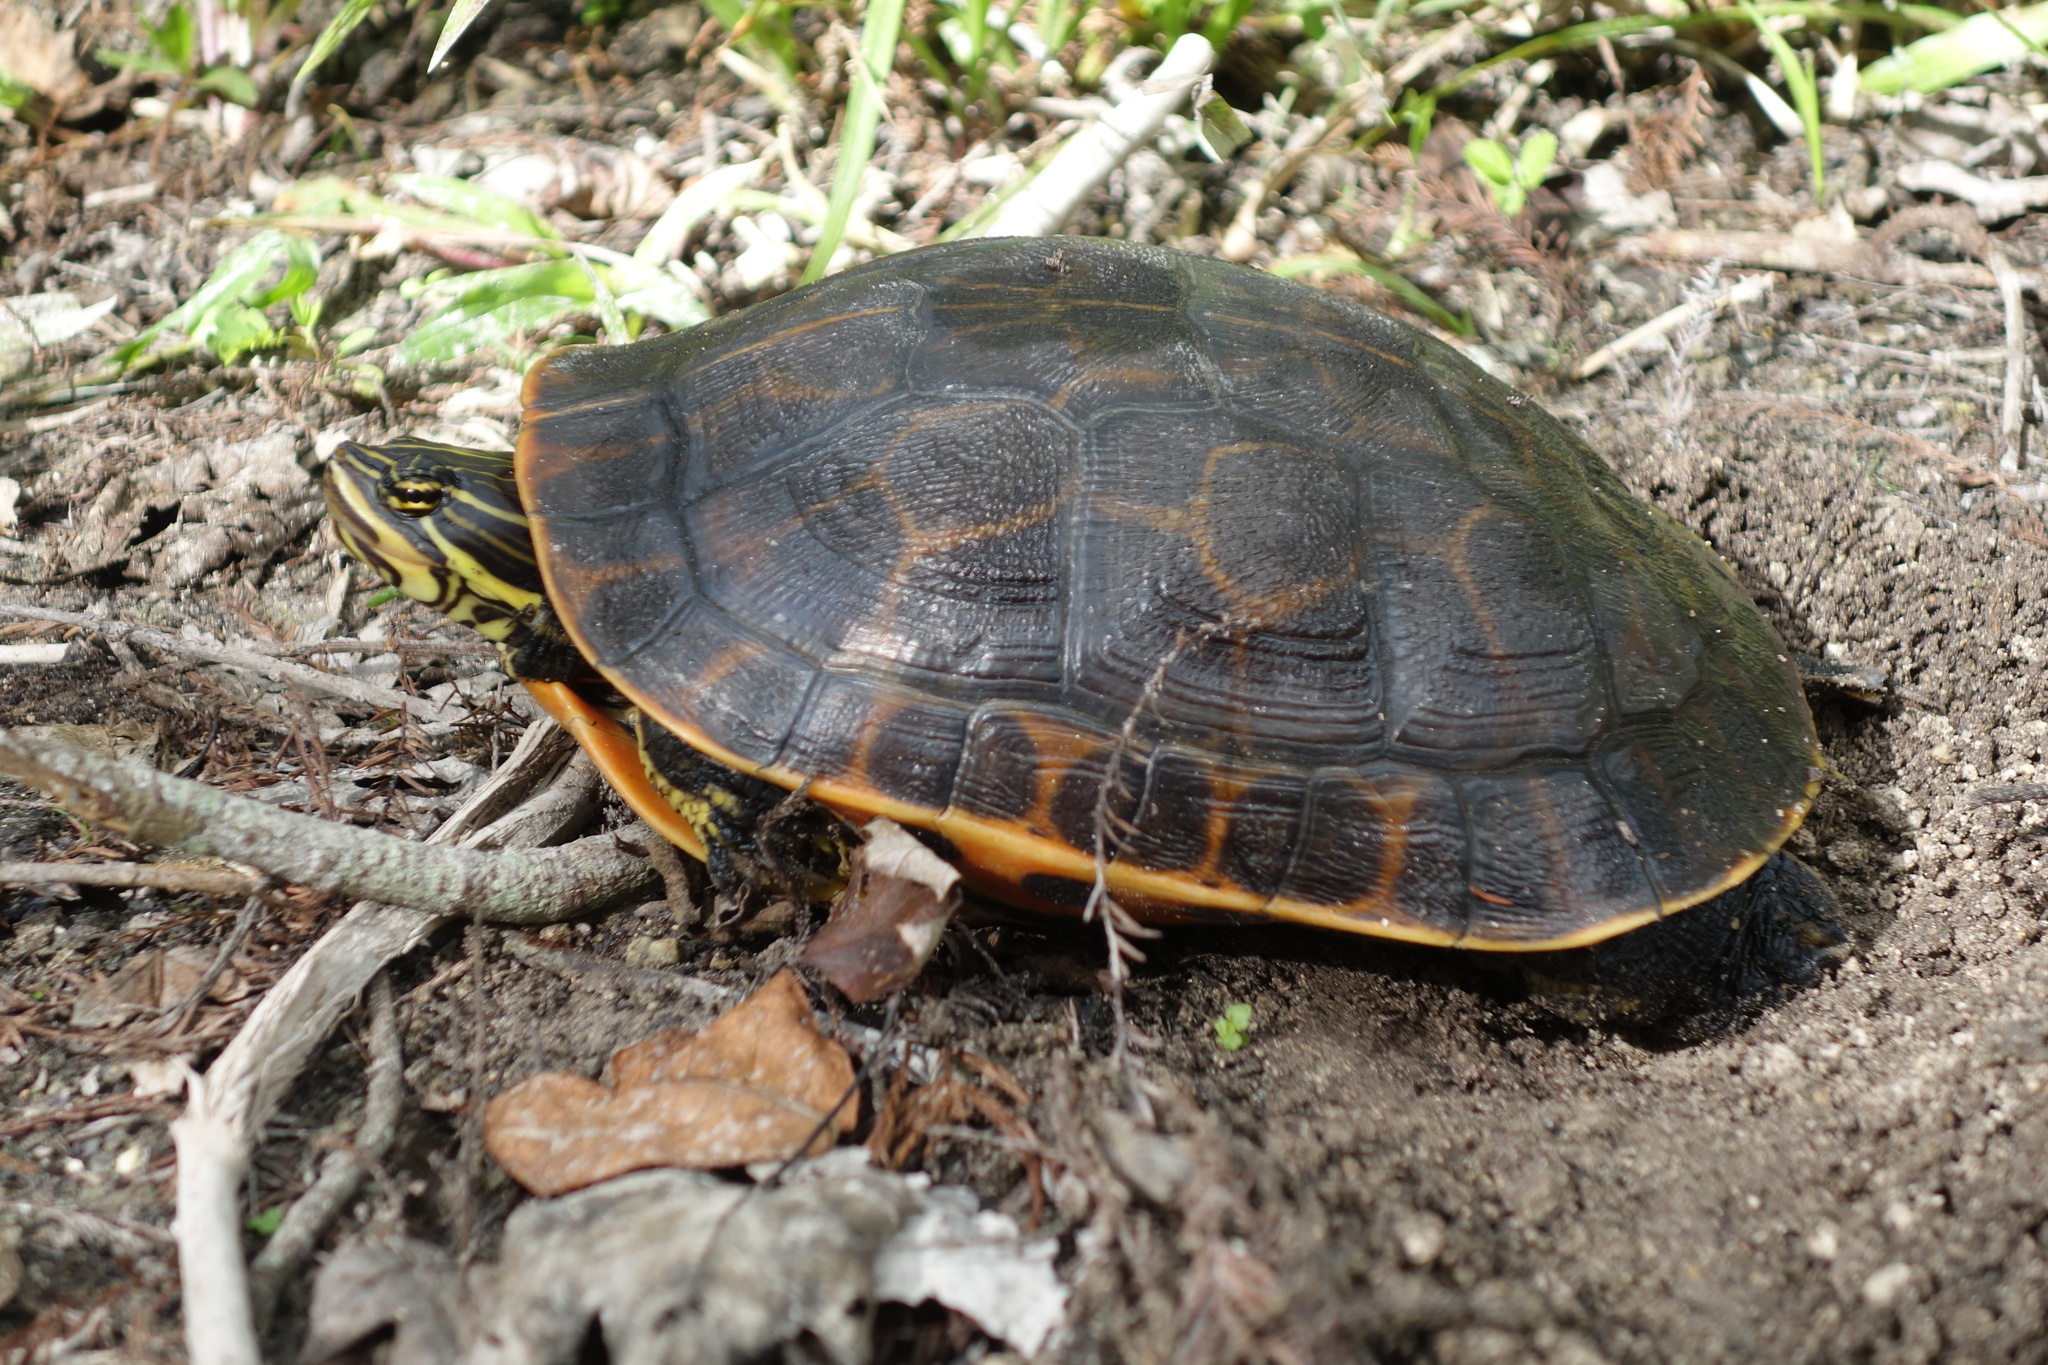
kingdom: Animalia
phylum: Chordata
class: Testudines
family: Emydidae
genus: Deirochelys
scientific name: Deirochelys reticularia
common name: Chicken turtle
